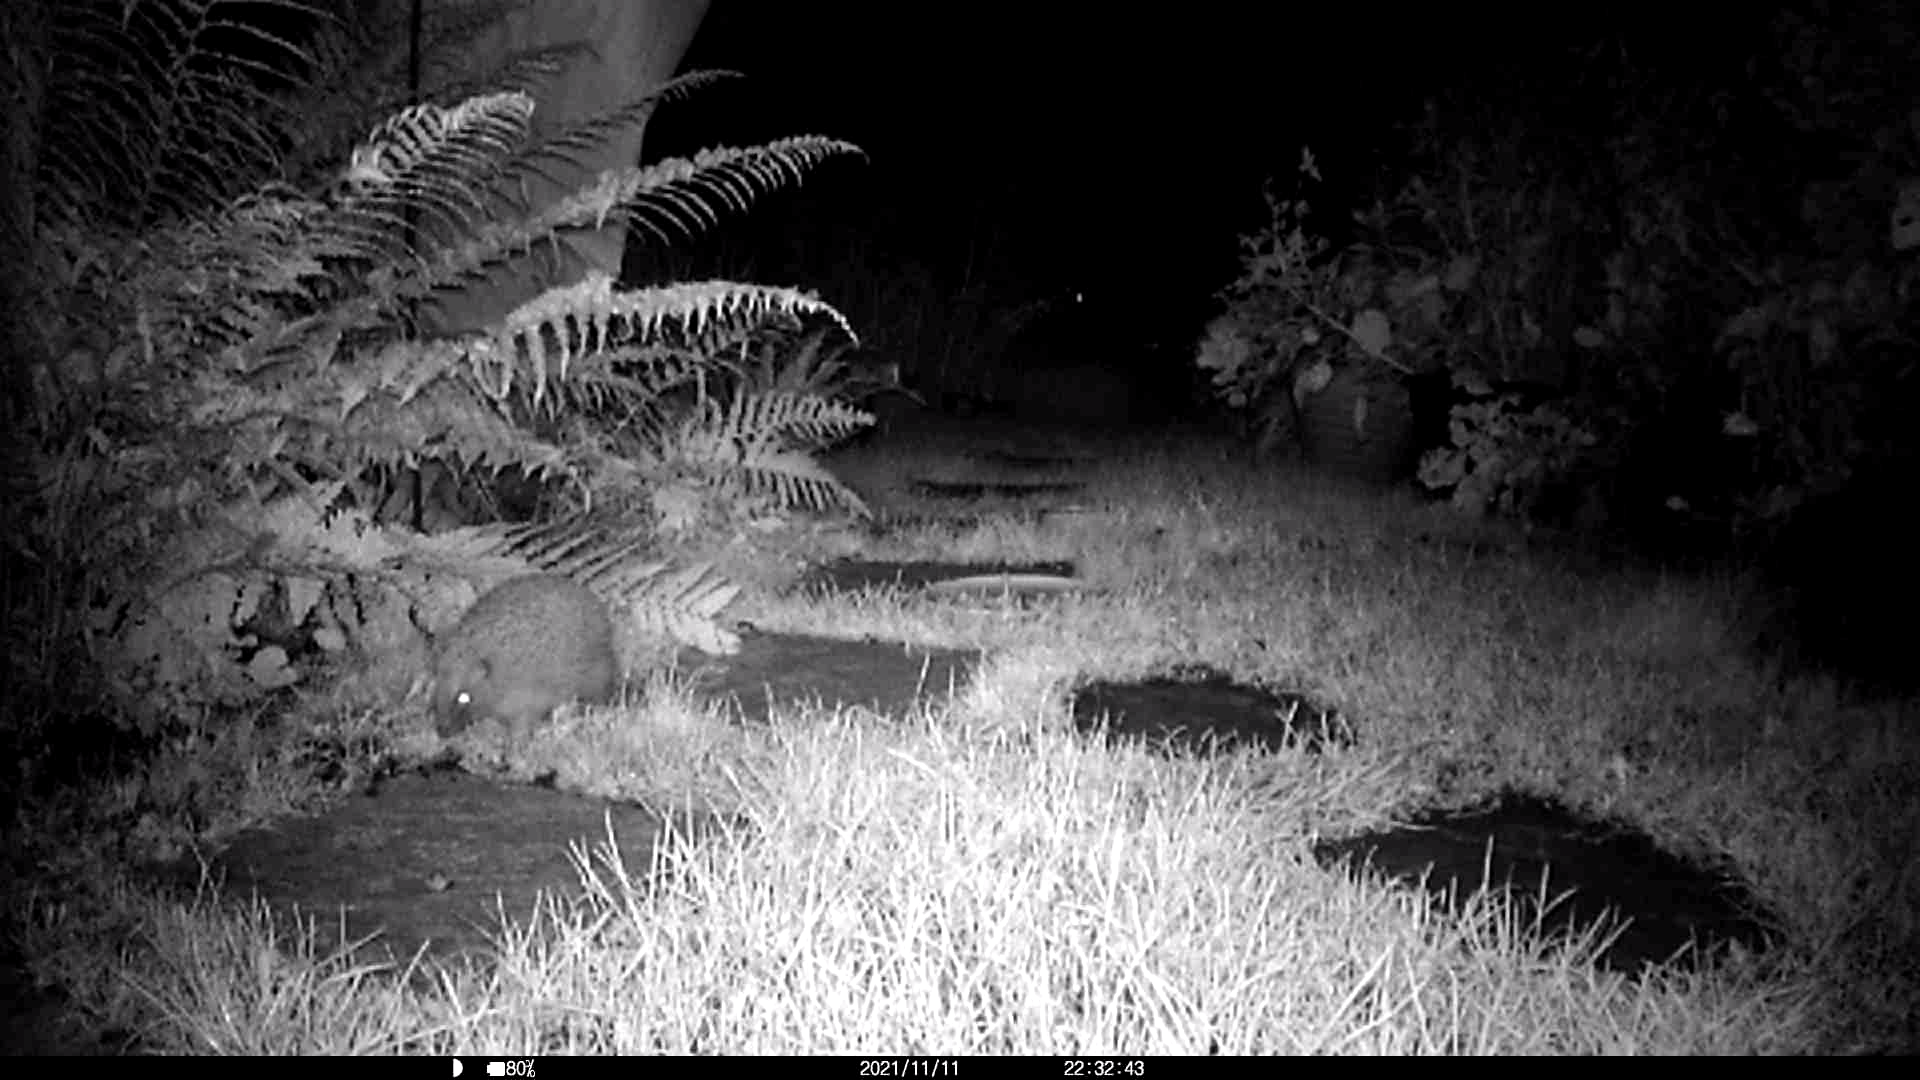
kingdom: Animalia
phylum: Chordata
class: Mammalia
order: Erinaceomorpha
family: Erinaceidae
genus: Erinaceus
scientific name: Erinaceus europaeus
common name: West european hedgehog
